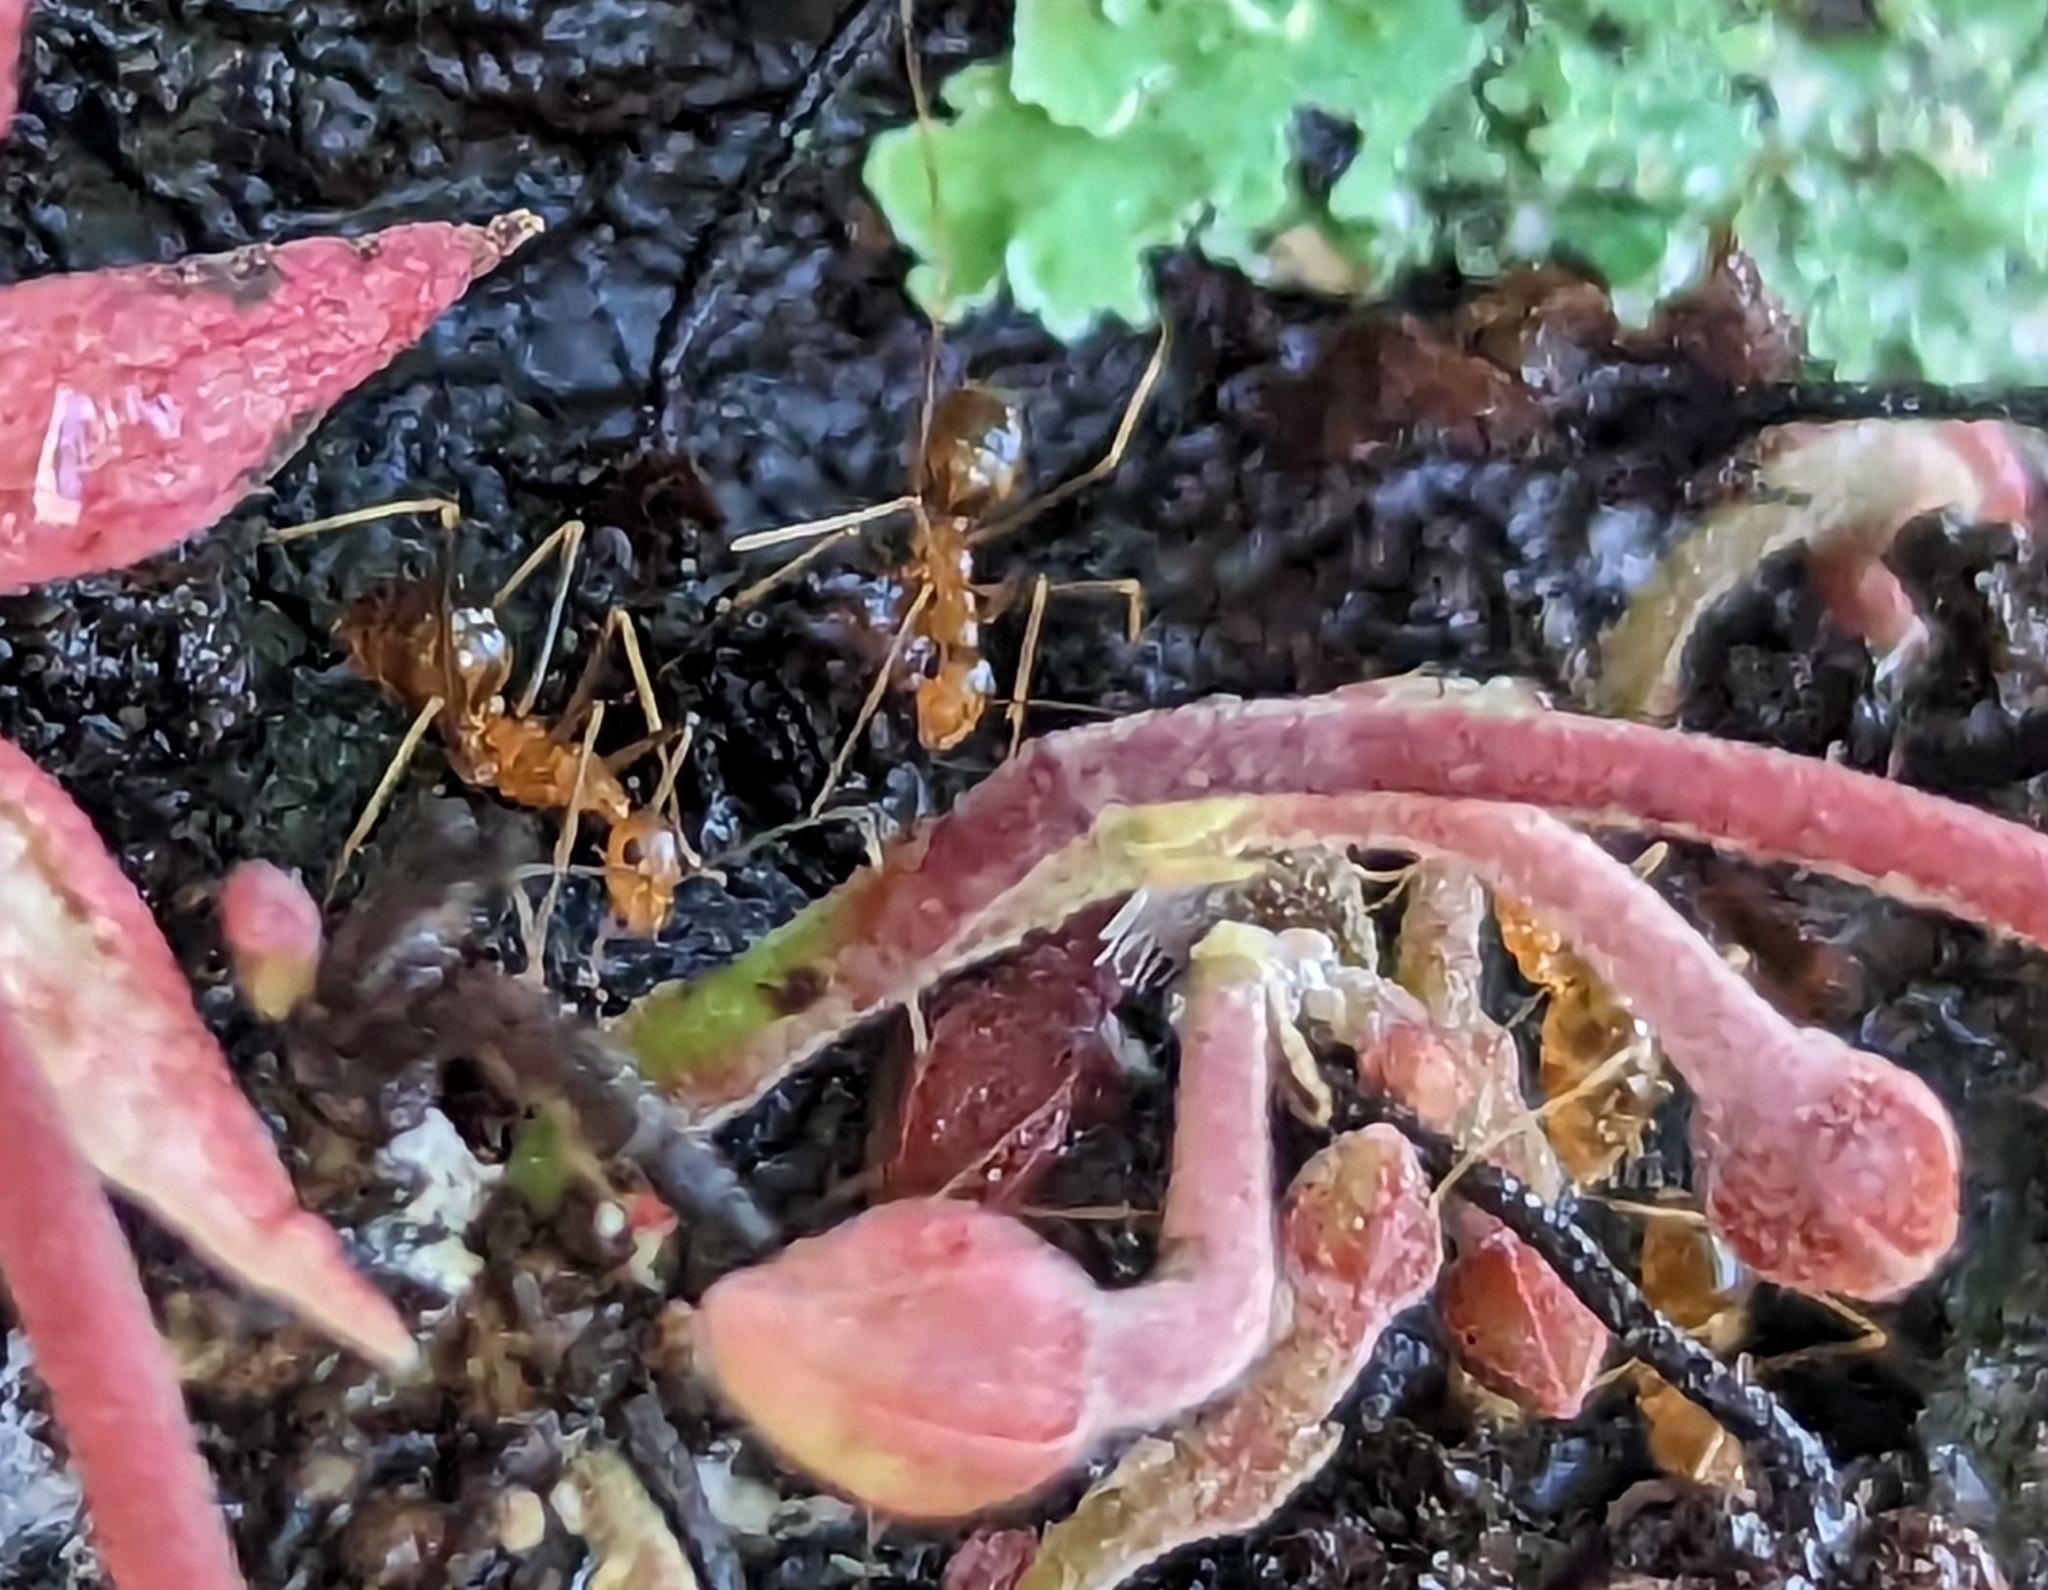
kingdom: Animalia
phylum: Arthropoda
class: Insecta
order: Hymenoptera
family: Formicidae
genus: Anoplolepis
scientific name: Anoplolepis gracilipes
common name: Ant
